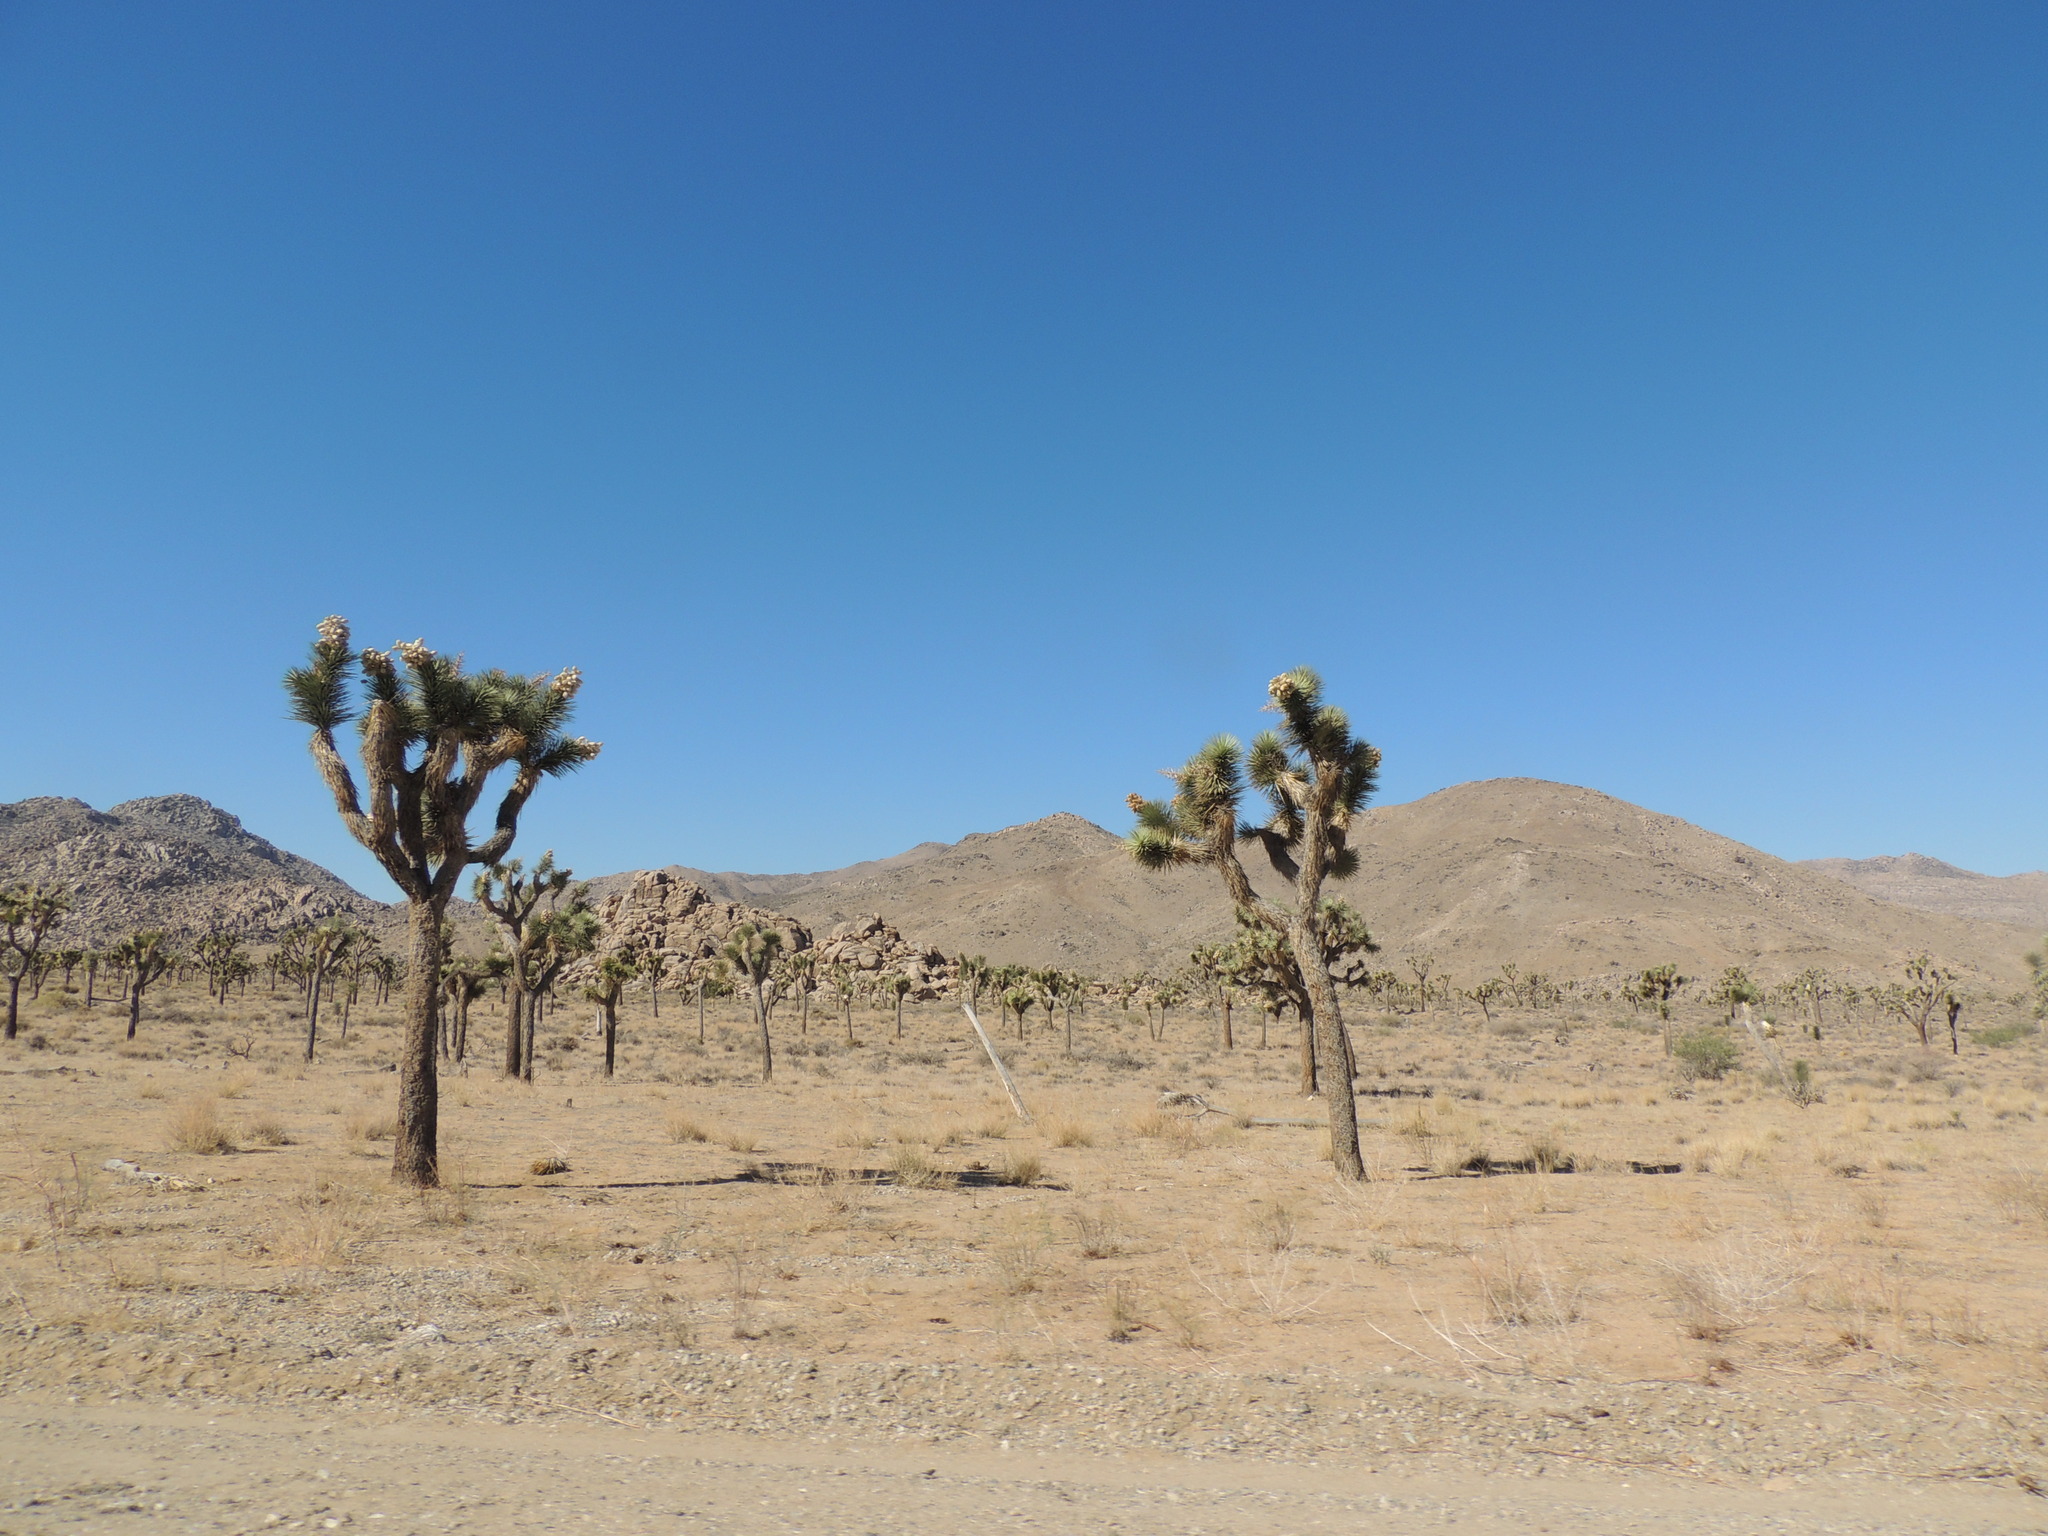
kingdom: Plantae
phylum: Tracheophyta
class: Liliopsida
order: Asparagales
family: Asparagaceae
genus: Yucca
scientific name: Yucca brevifolia
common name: Joshua tree
